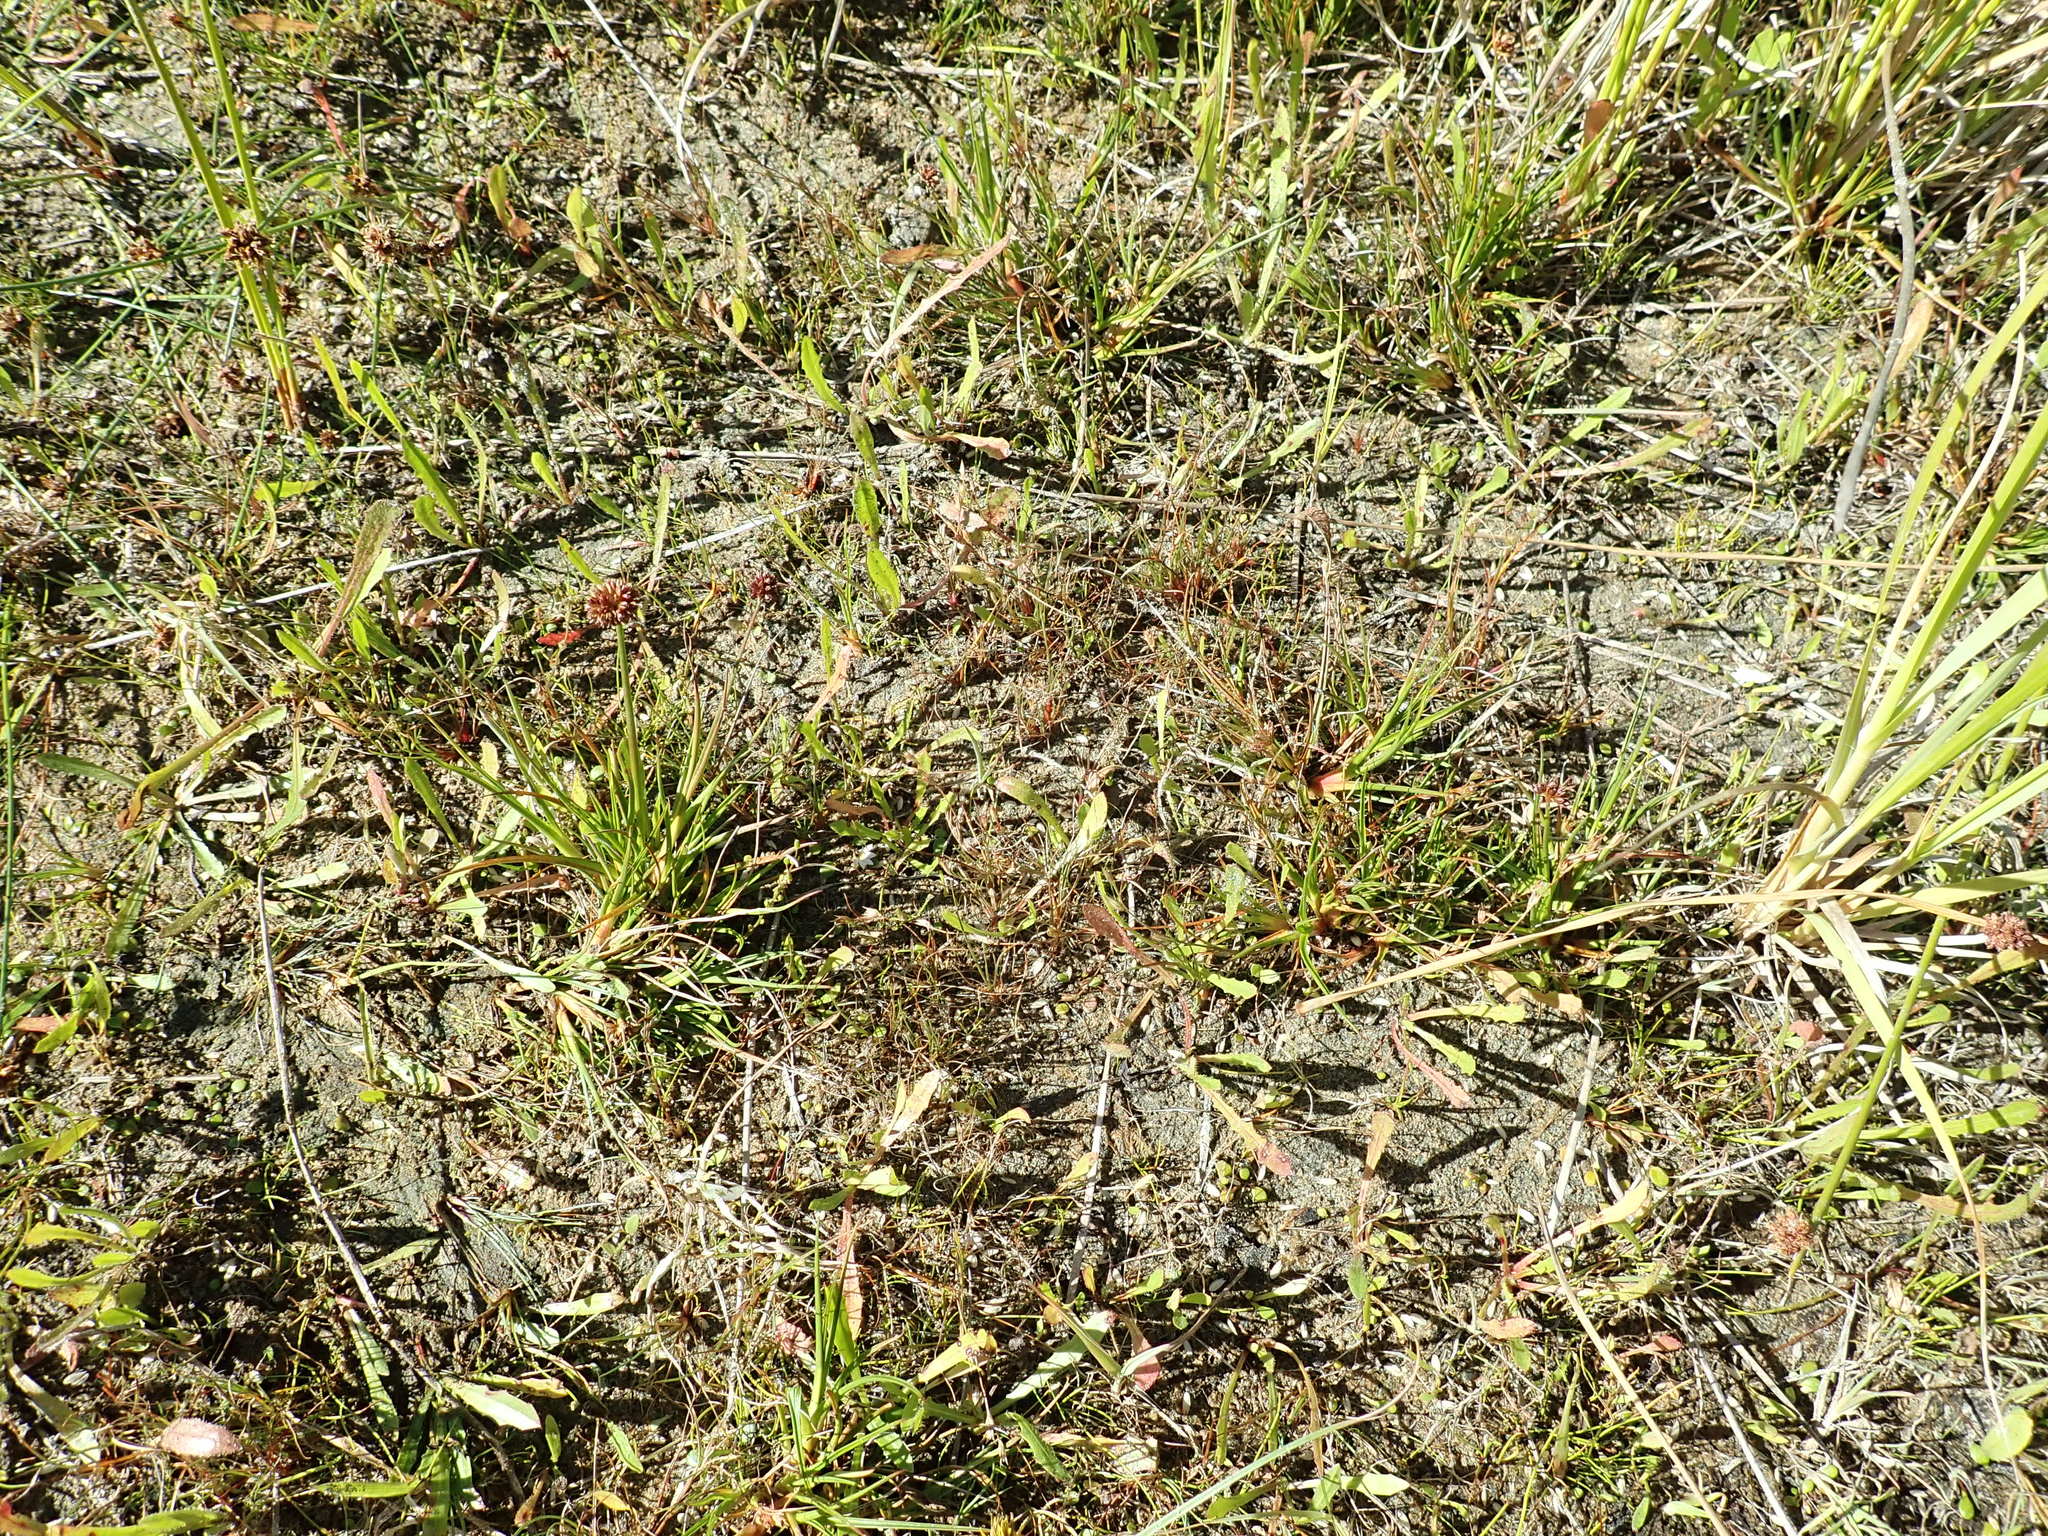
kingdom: Plantae
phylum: Tracheophyta
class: Liliopsida
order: Poales
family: Juncaceae
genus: Juncus
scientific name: Juncus caespiticius
